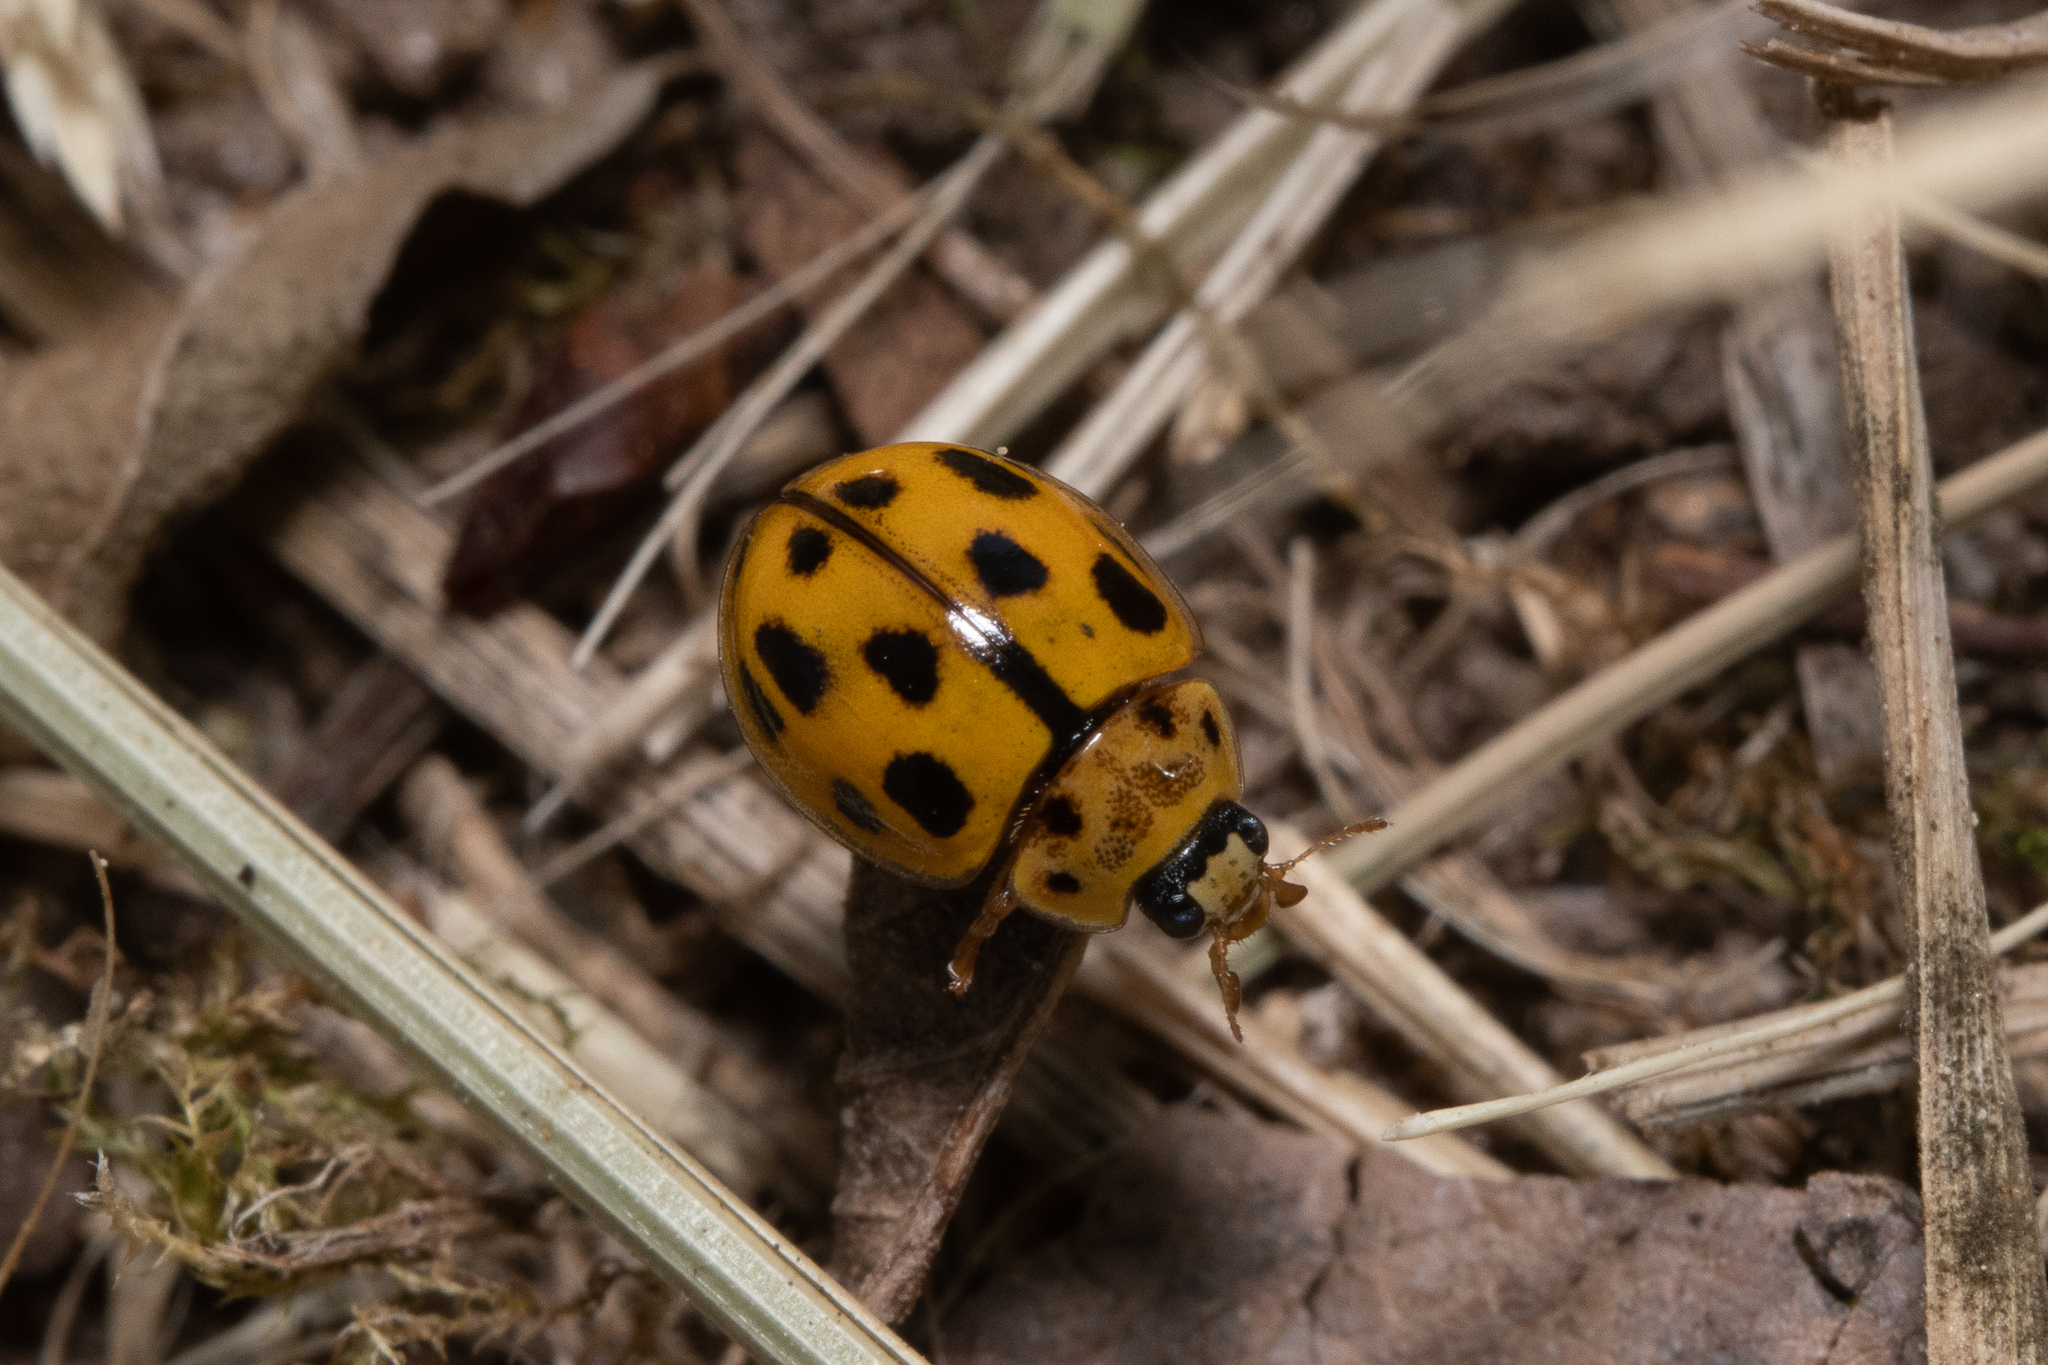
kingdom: Animalia
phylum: Arthropoda
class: Insecta
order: Coleoptera
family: Coccinellidae
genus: Propylaea
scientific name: Propylaea quatuordecimpunctata
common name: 14-spotted ladybird beetle
